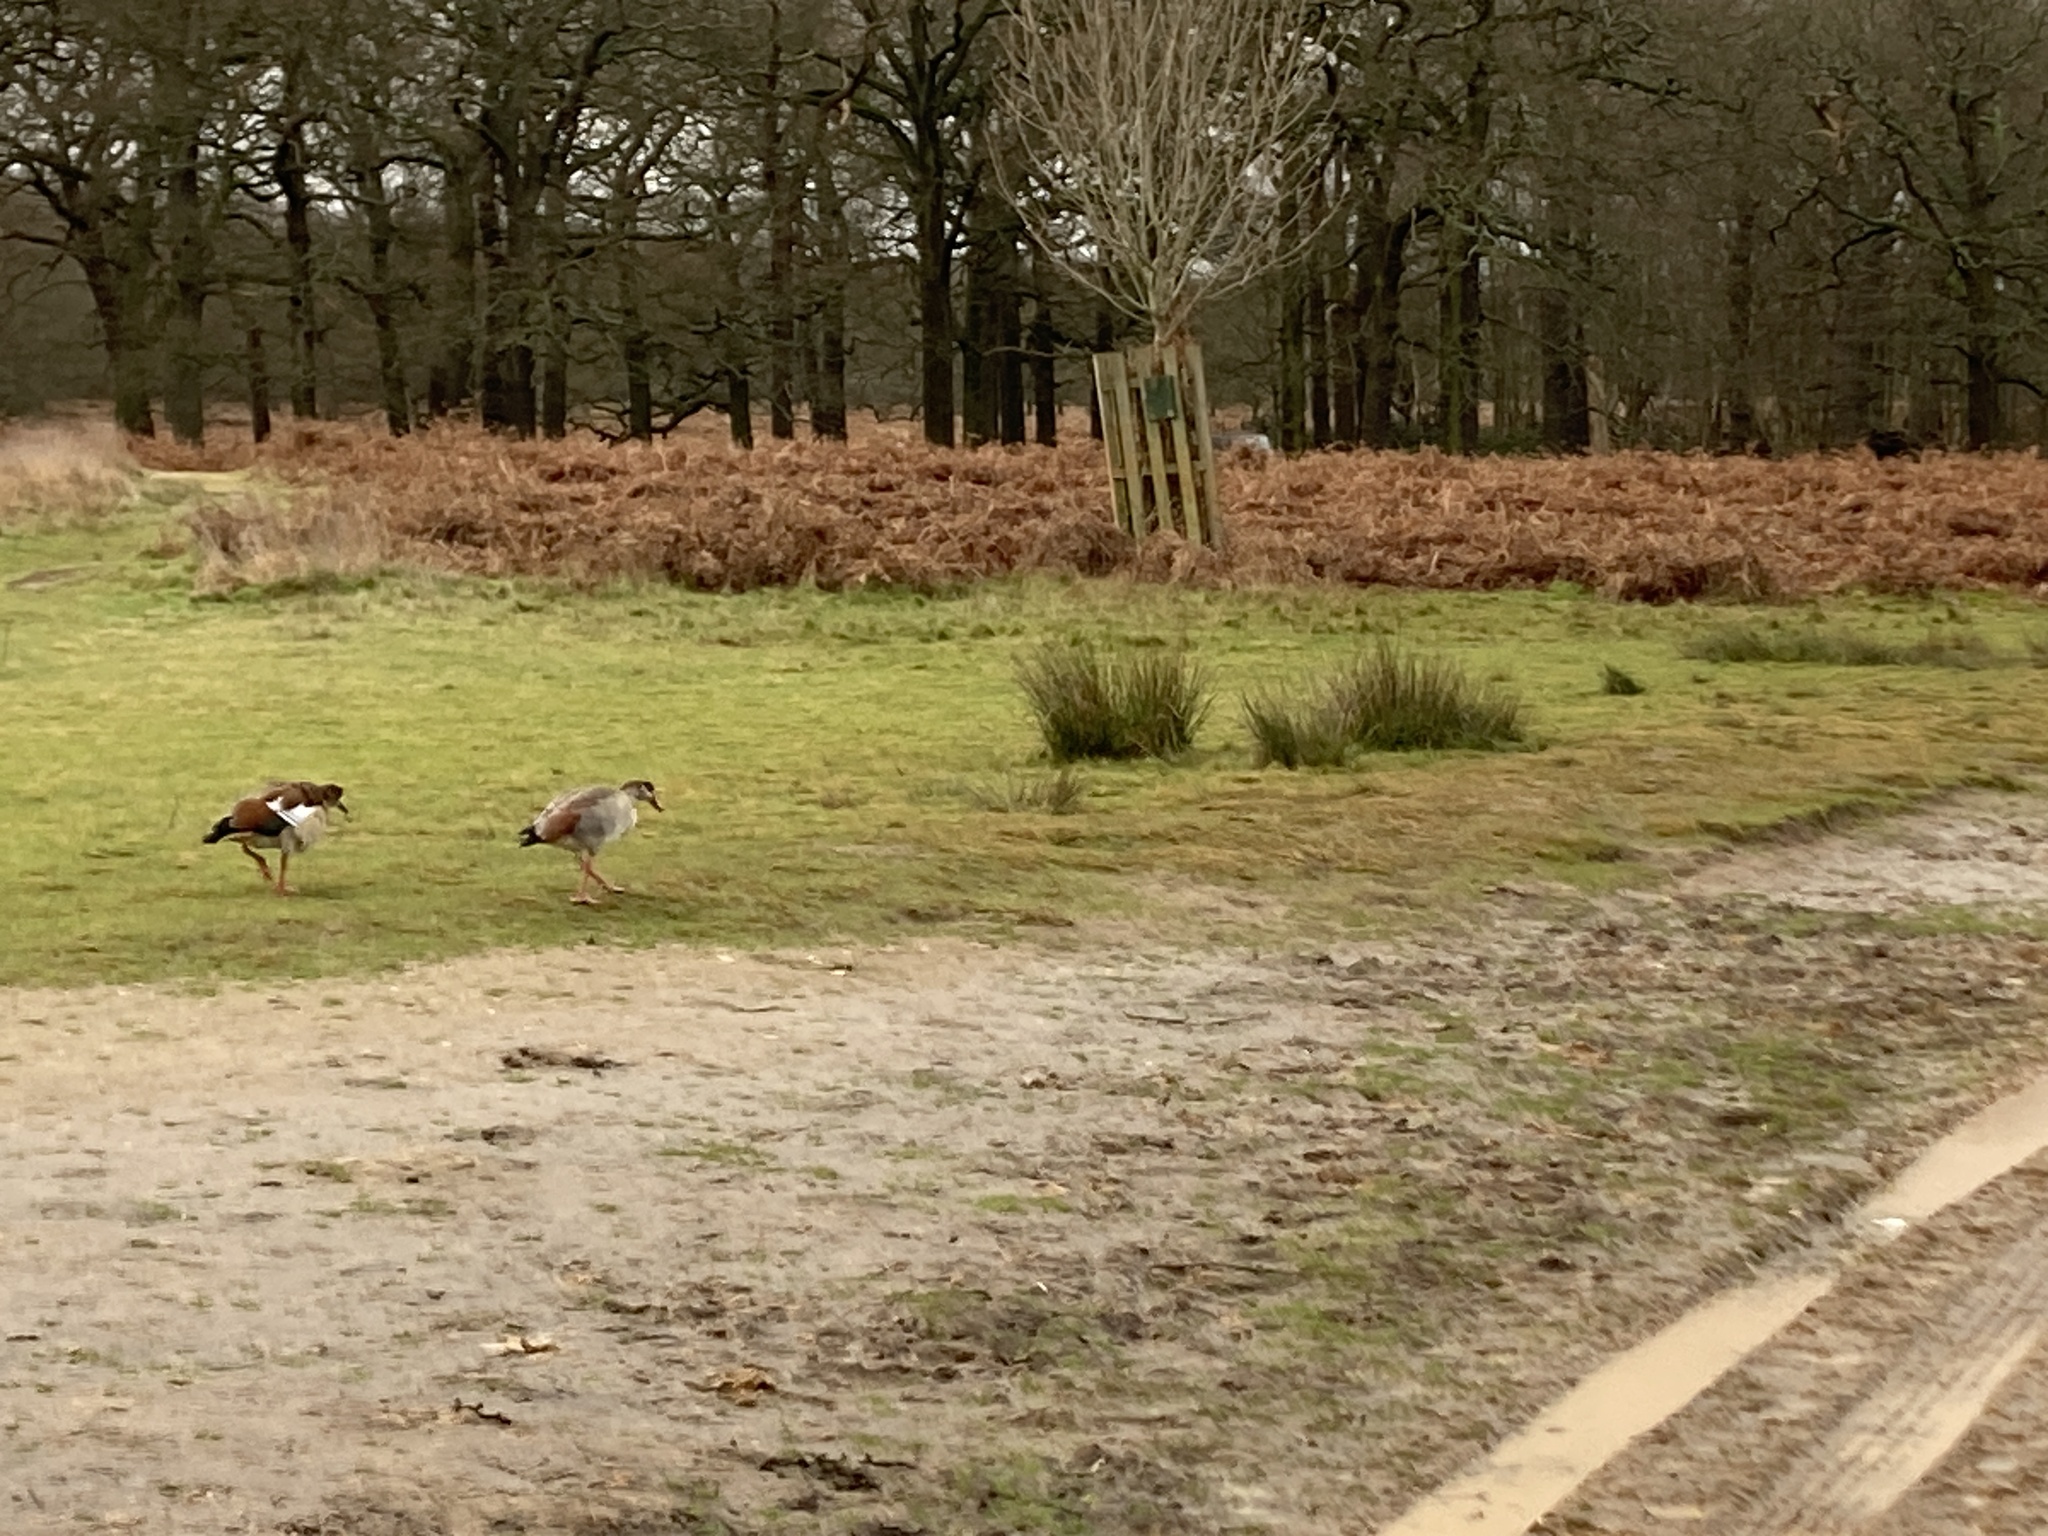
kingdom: Animalia
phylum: Chordata
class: Aves
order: Anseriformes
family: Anatidae
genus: Alopochen
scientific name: Alopochen aegyptiaca
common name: Egyptian goose
